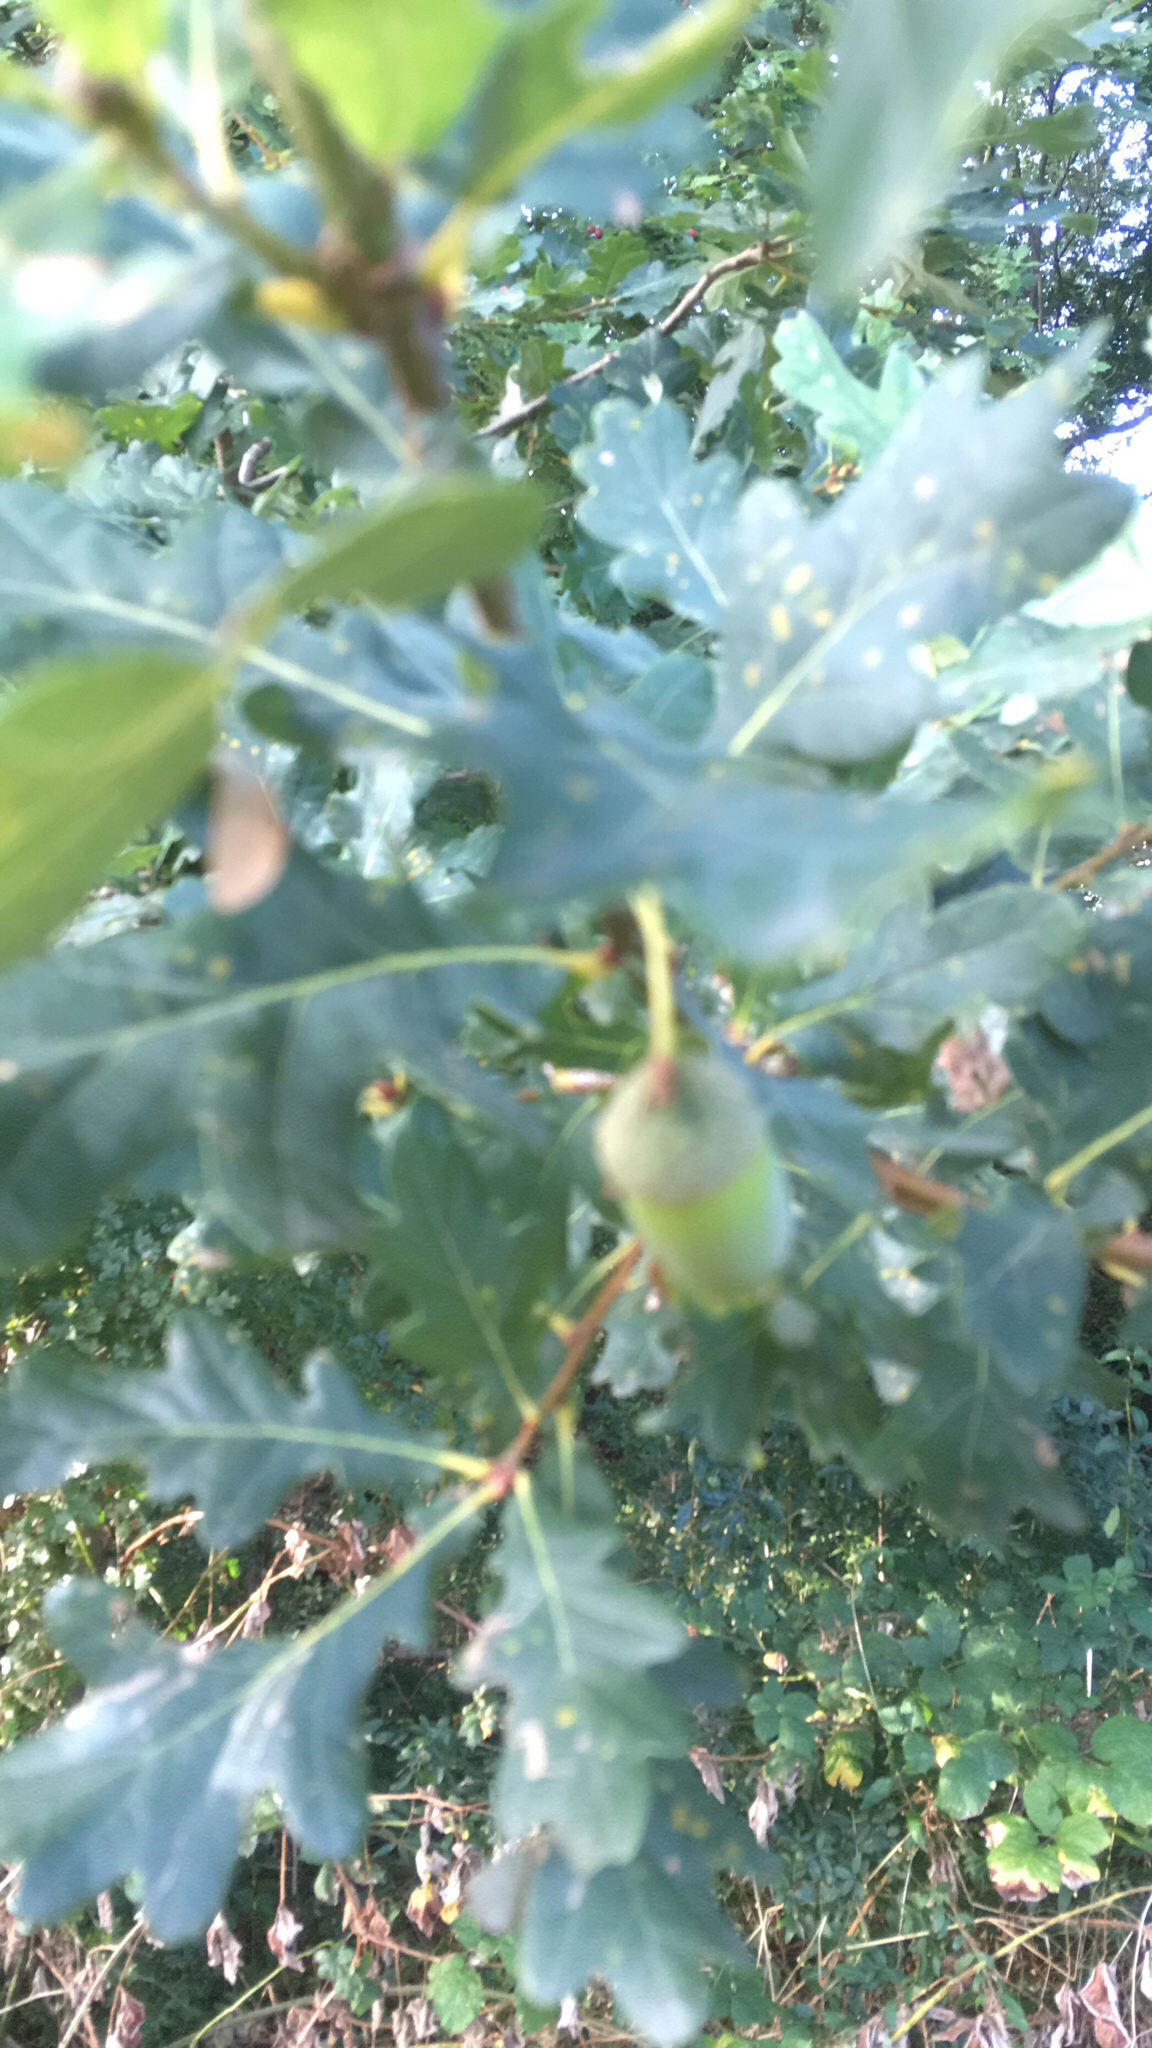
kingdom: Plantae
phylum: Tracheophyta
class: Magnoliopsida
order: Fagales
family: Fagaceae
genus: Quercus
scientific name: Quercus robur
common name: Pedunculate oak
